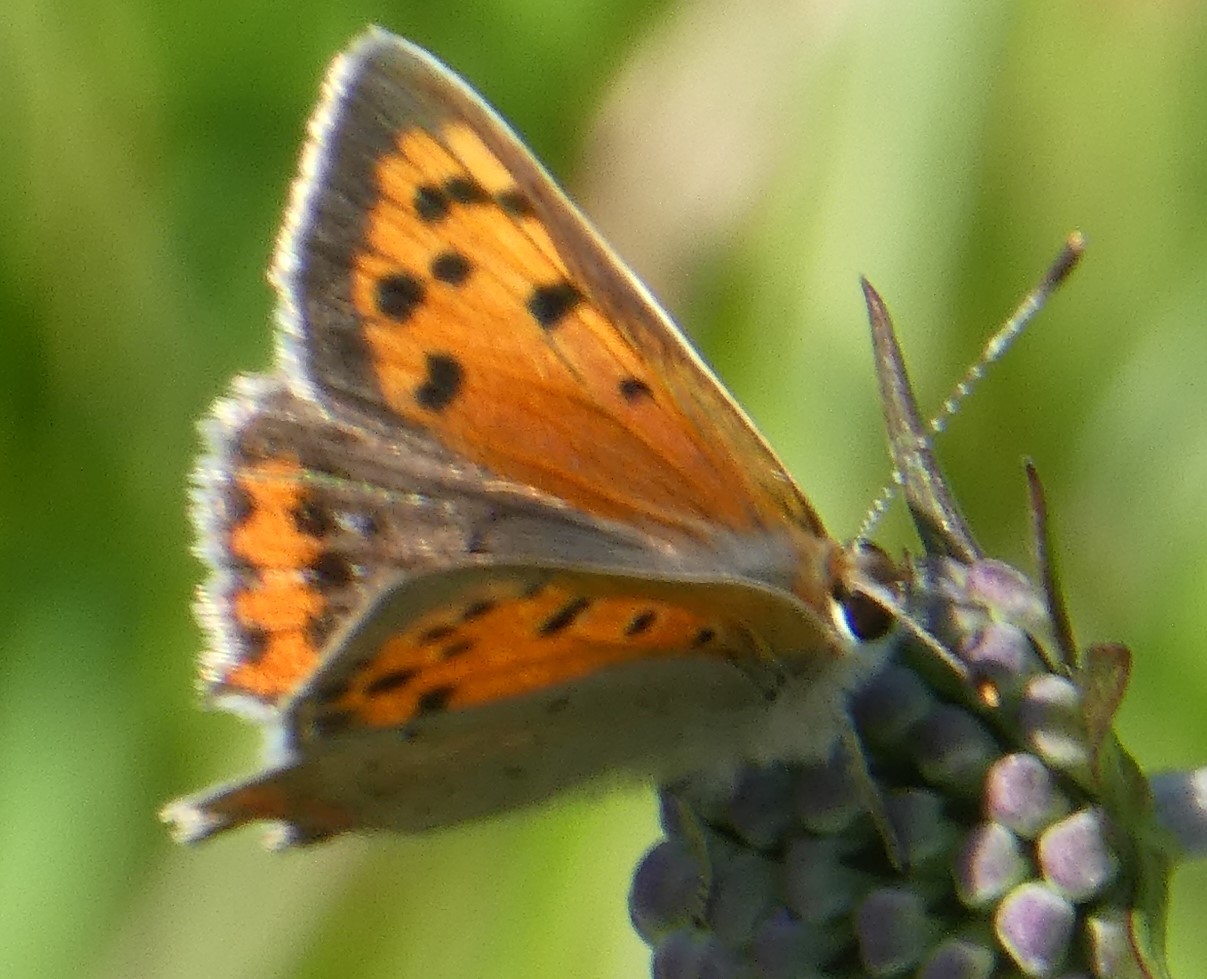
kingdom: Animalia
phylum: Arthropoda
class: Insecta
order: Lepidoptera
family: Lycaenidae
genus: Lycaena
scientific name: Lycaena phlaeas
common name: Small copper
